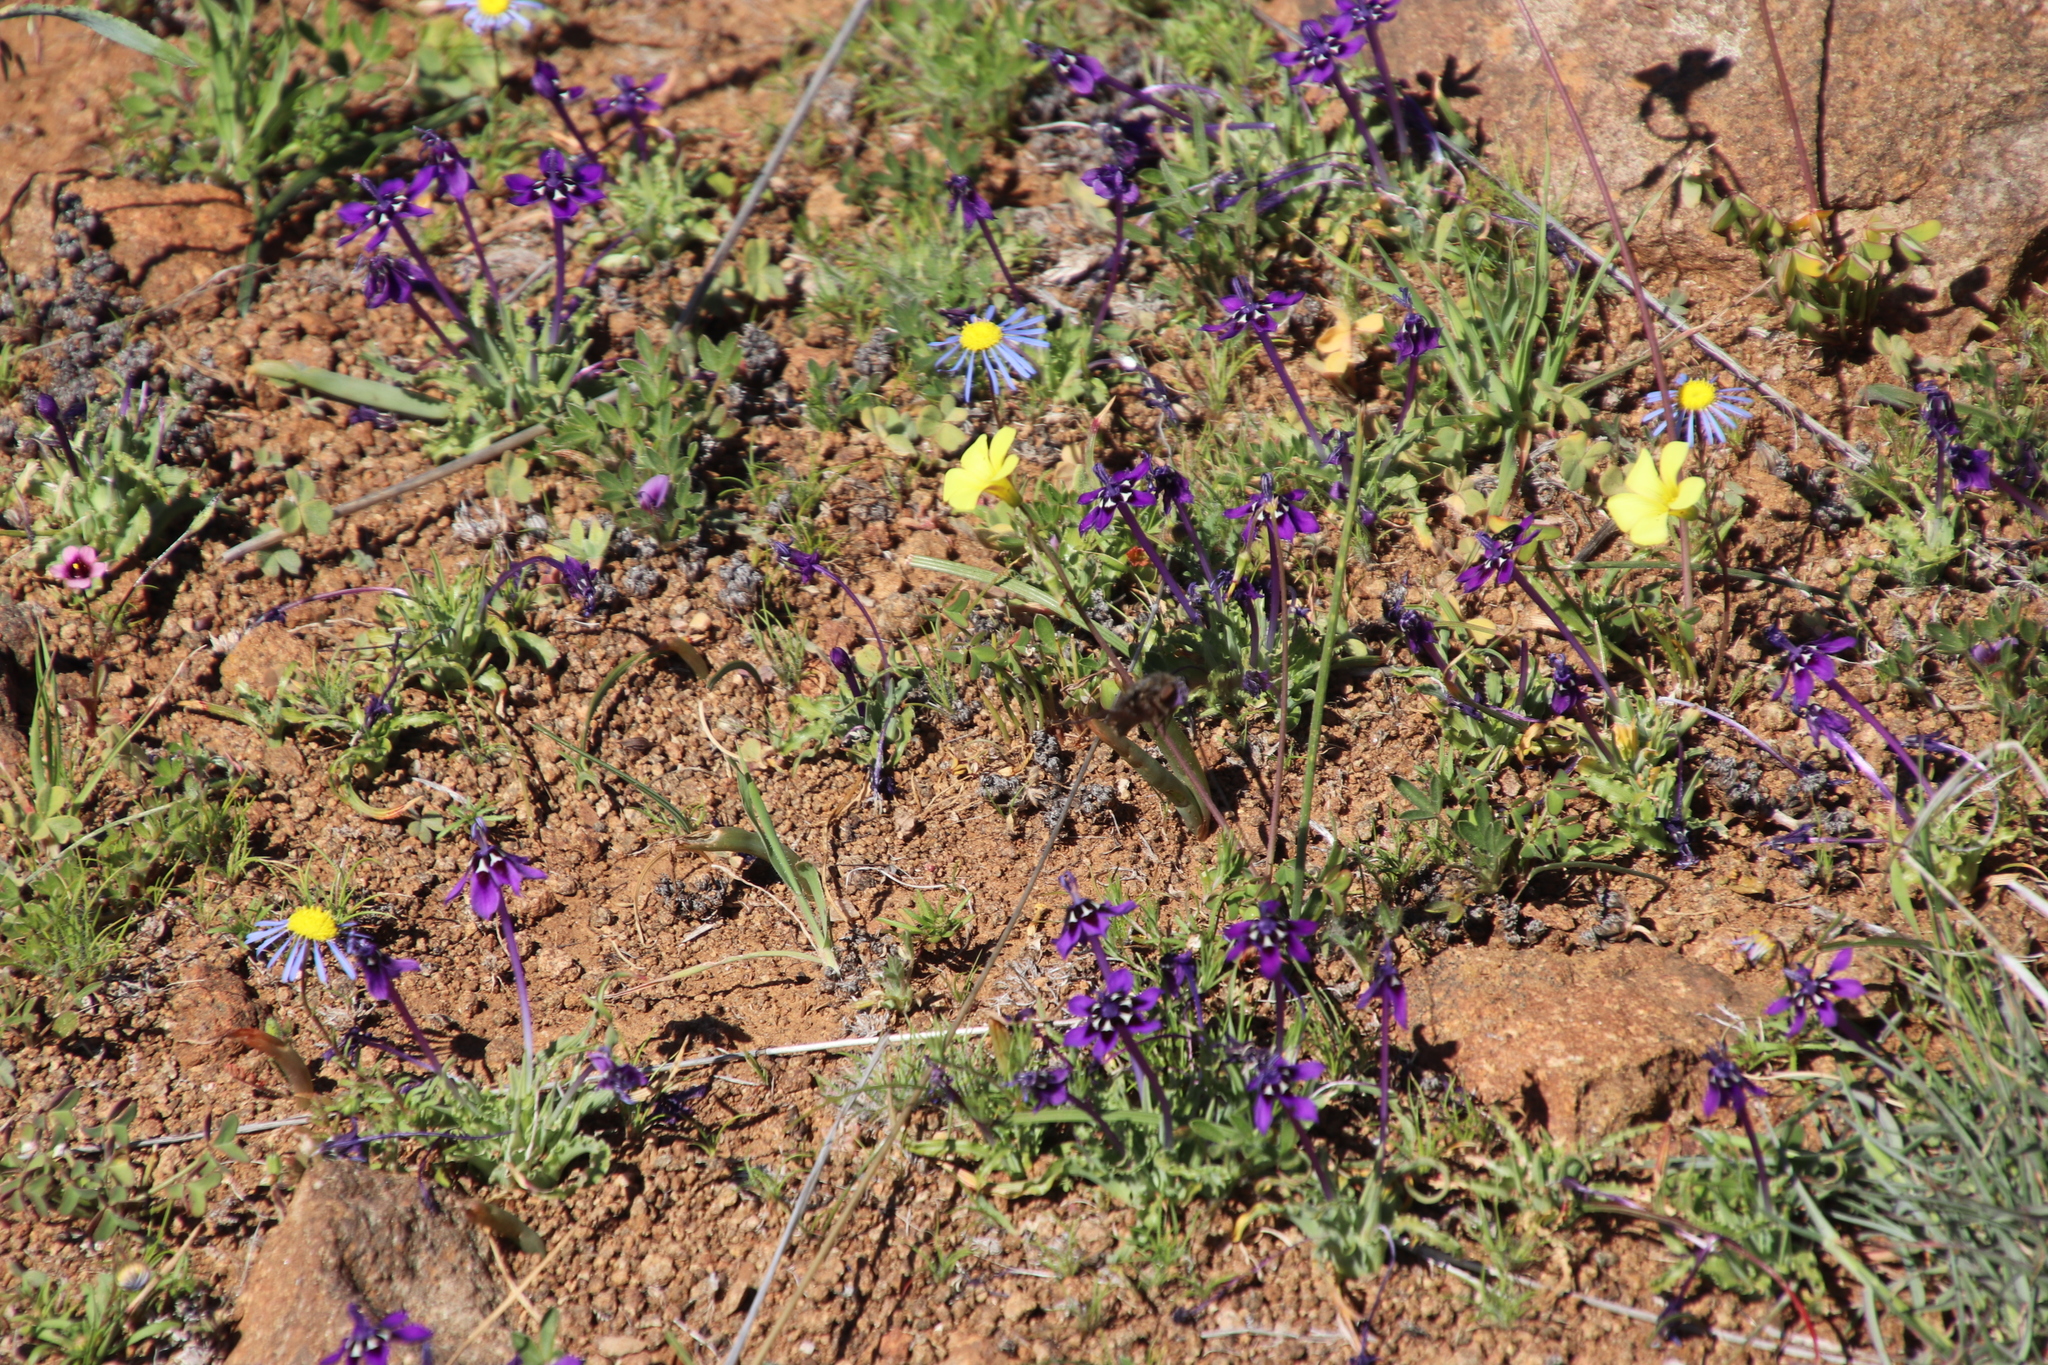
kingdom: Plantae
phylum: Tracheophyta
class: Liliopsida
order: Asparagales
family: Iridaceae
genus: Lapeirousia
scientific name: Lapeirousia oreogena
